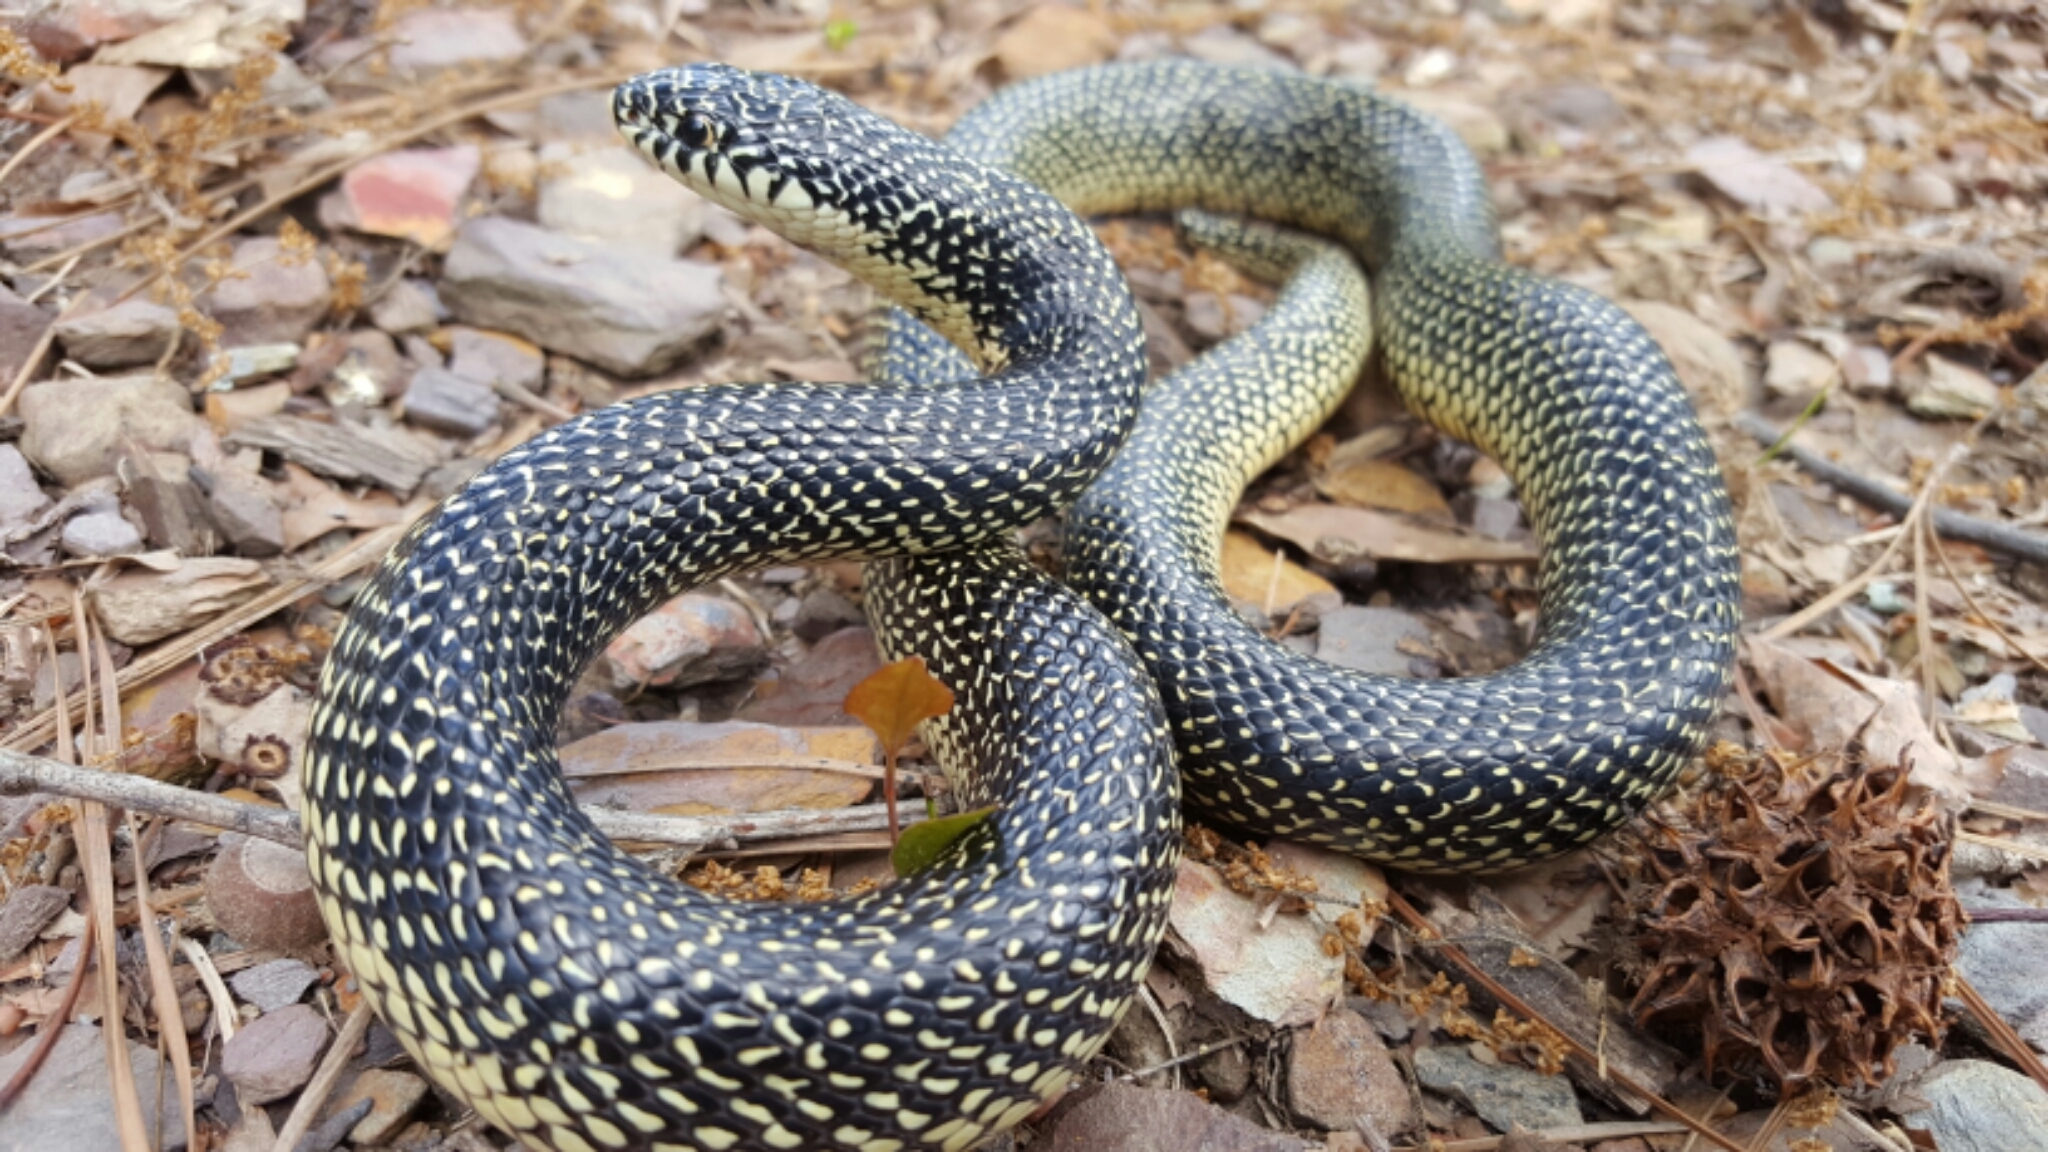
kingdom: Animalia
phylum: Chordata
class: Squamata
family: Colubridae
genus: Lampropeltis
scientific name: Lampropeltis holbrooki
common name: Speckled kingsnake
